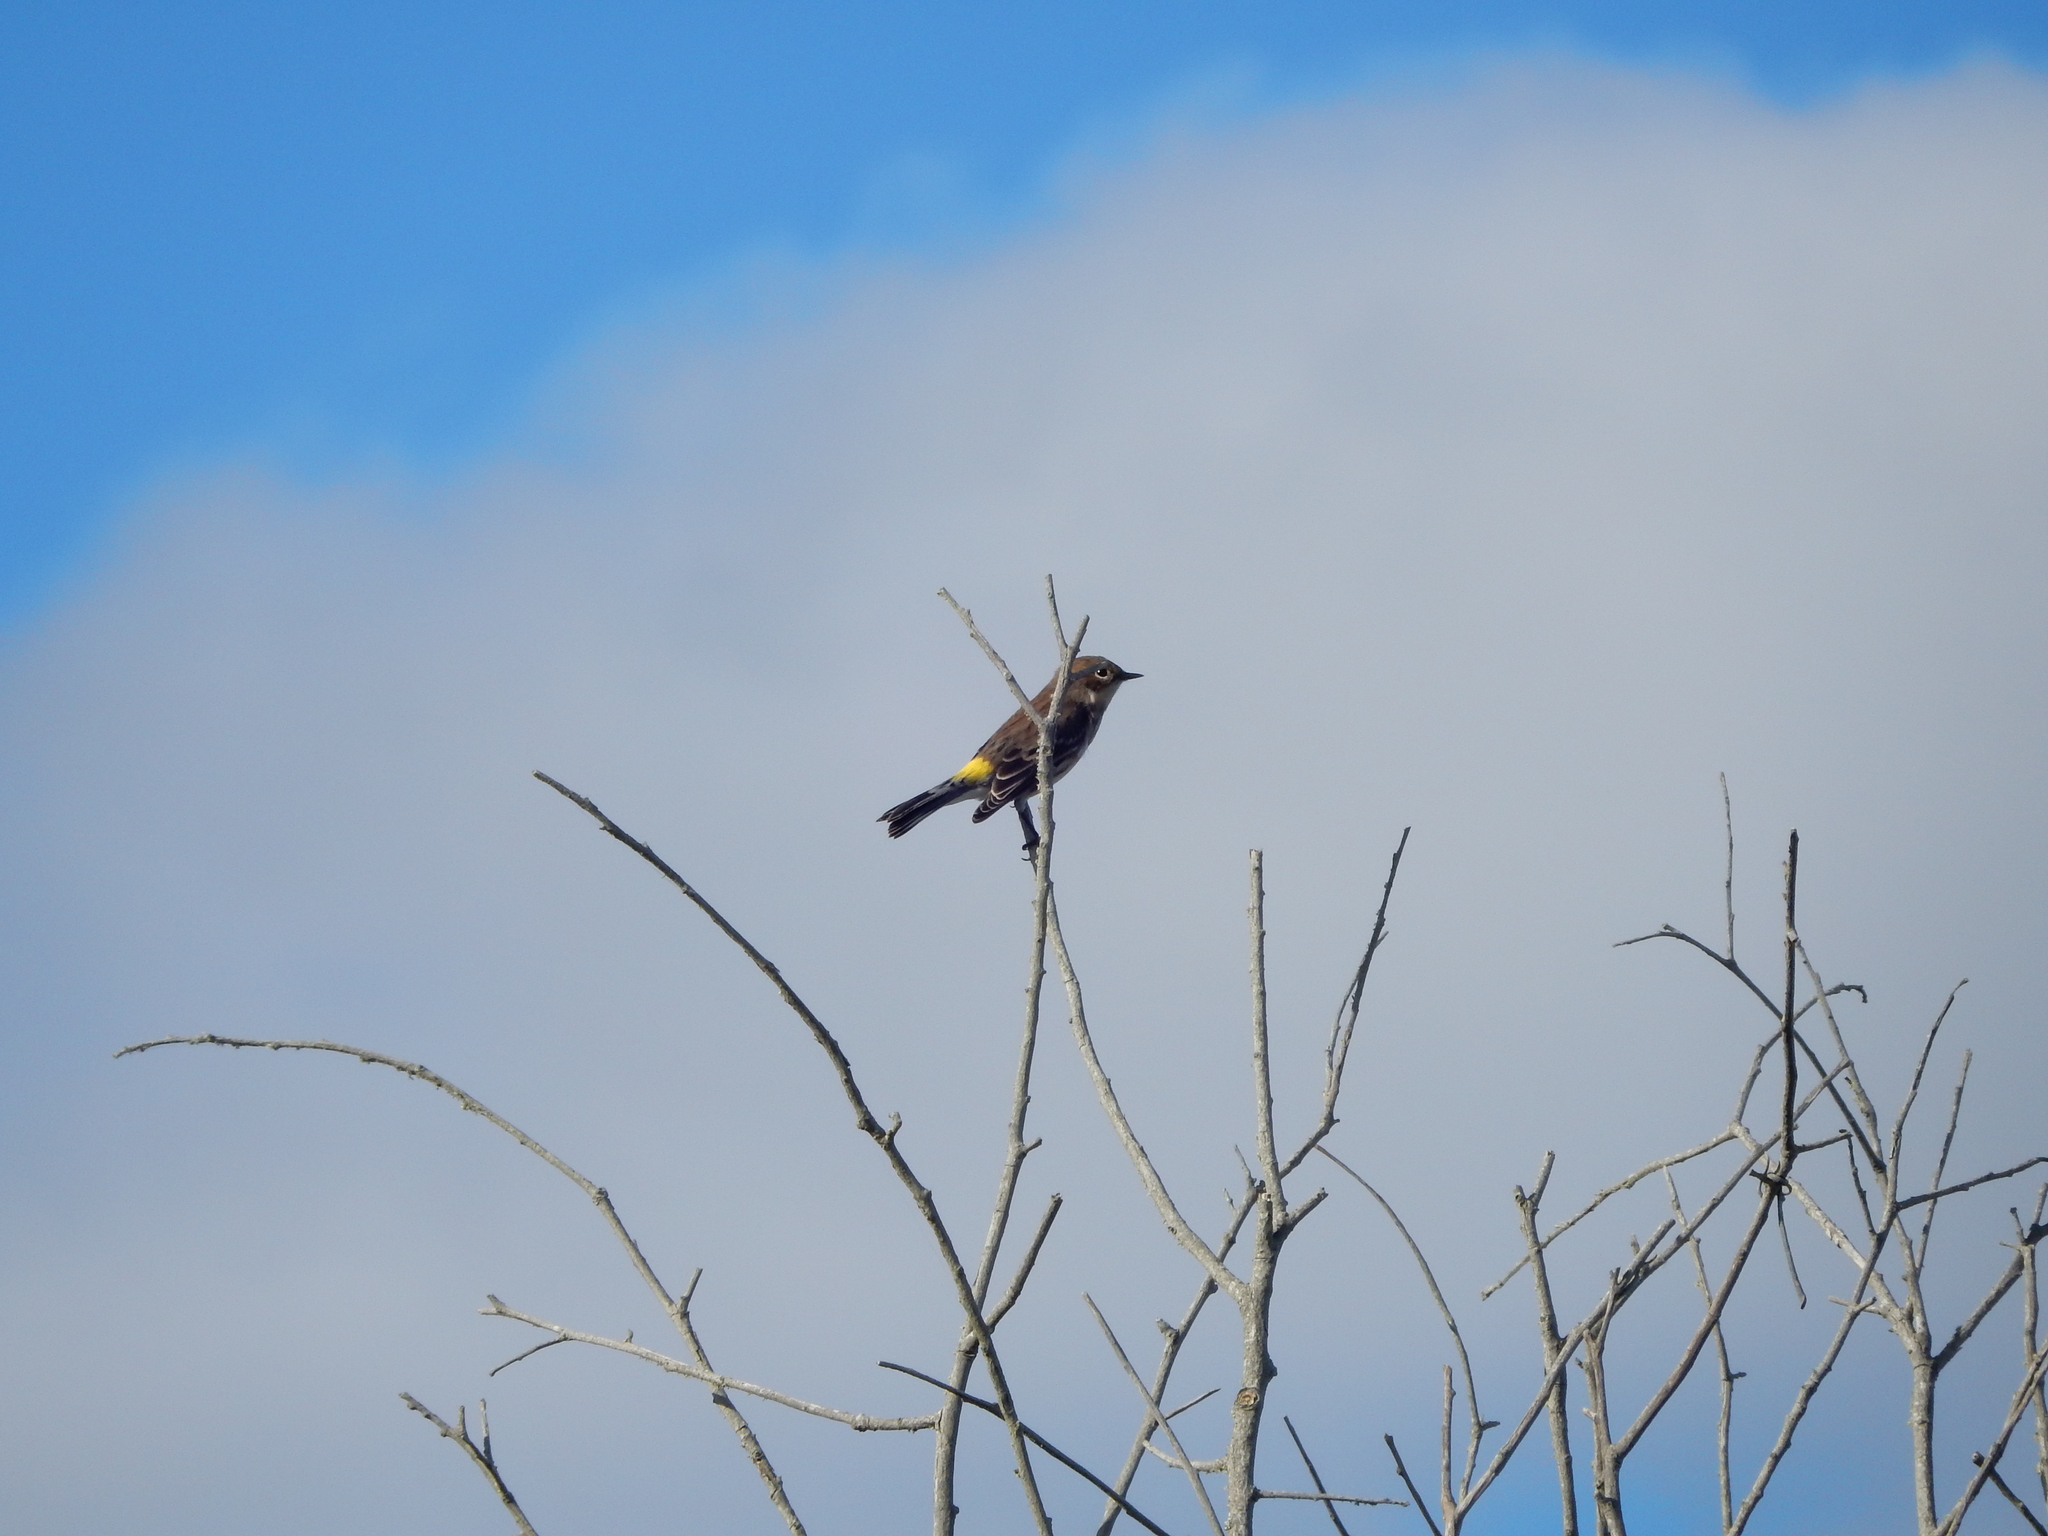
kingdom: Animalia
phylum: Chordata
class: Aves
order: Passeriformes
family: Parulidae
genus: Setophaga
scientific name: Setophaga coronata
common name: Myrtle warbler
